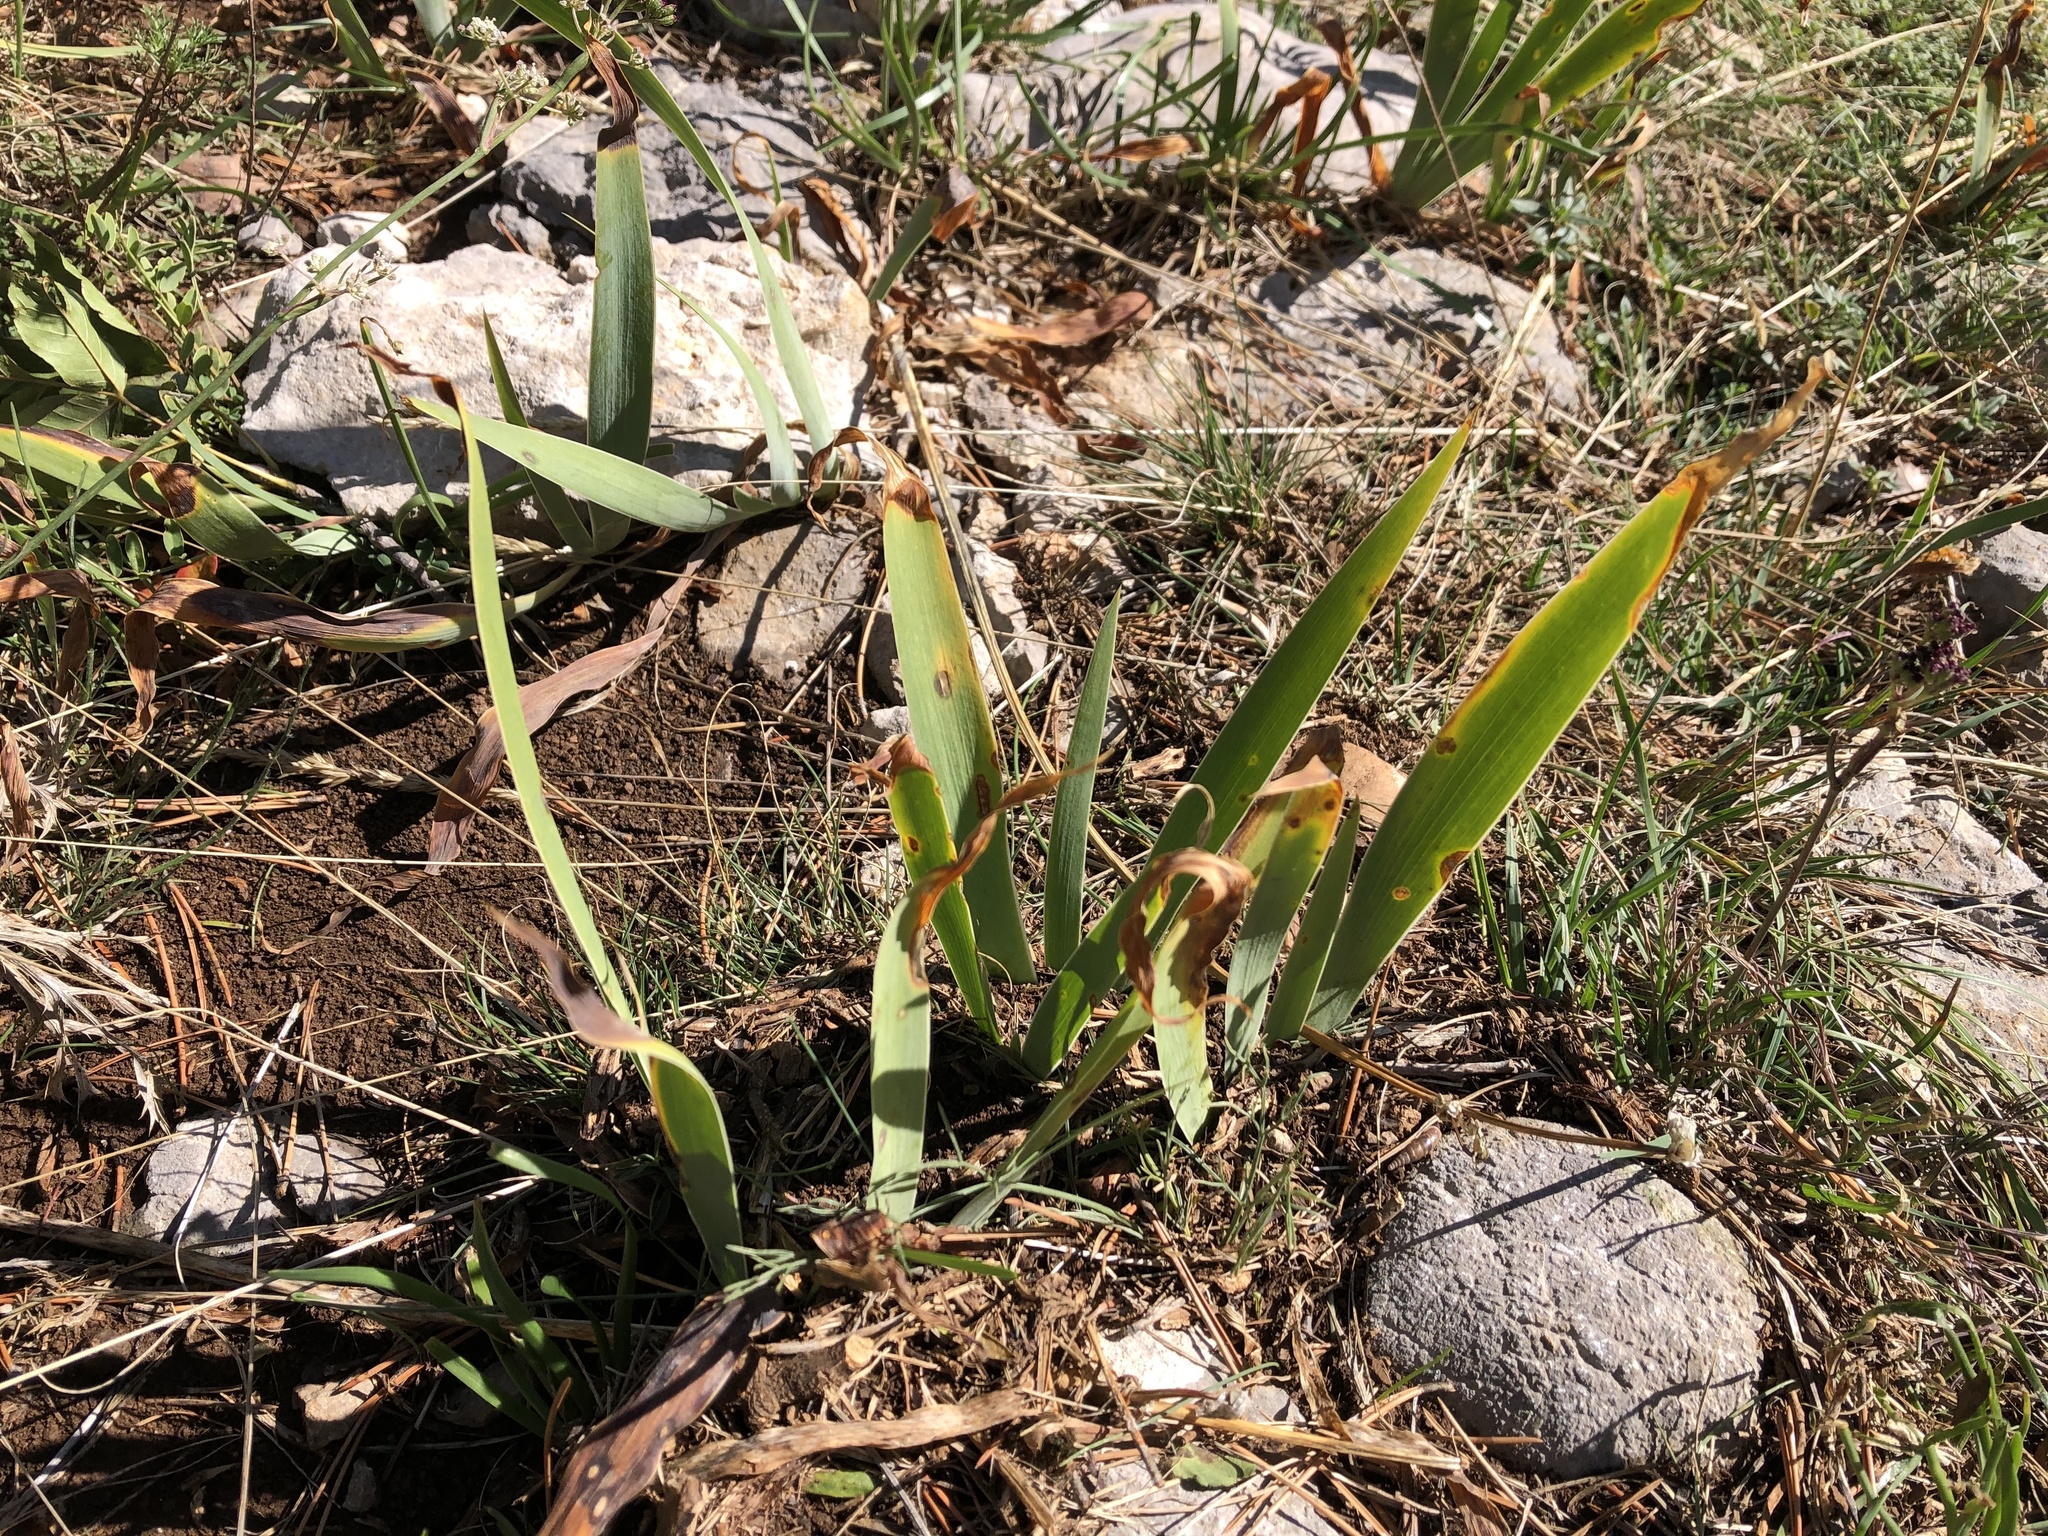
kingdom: Plantae
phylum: Tracheophyta
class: Liliopsida
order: Asparagales
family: Iridaceae
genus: Iris
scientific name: Iris
